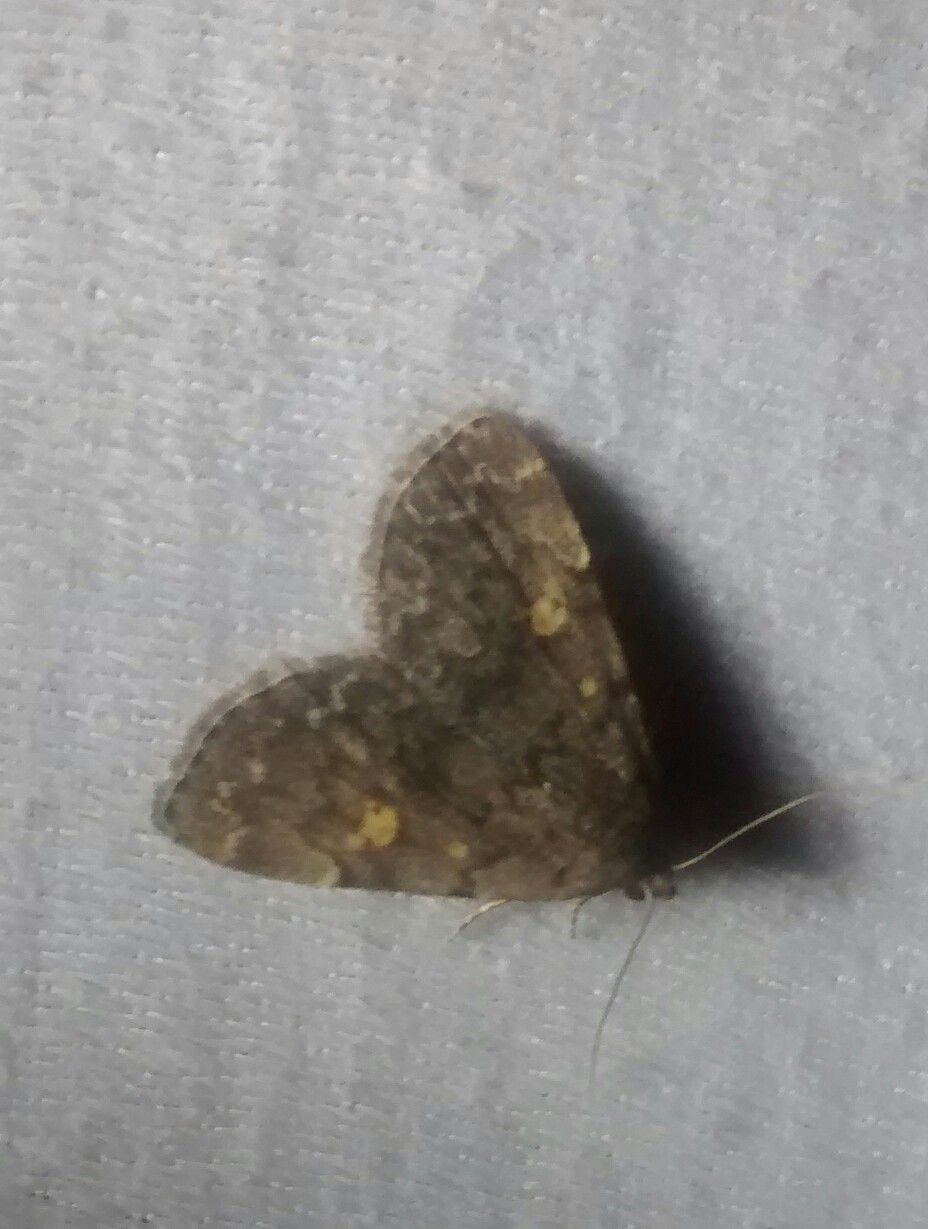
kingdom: Animalia
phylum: Arthropoda
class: Insecta
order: Lepidoptera
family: Erebidae
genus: Idia
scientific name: Idia aemula
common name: Common idia moth
